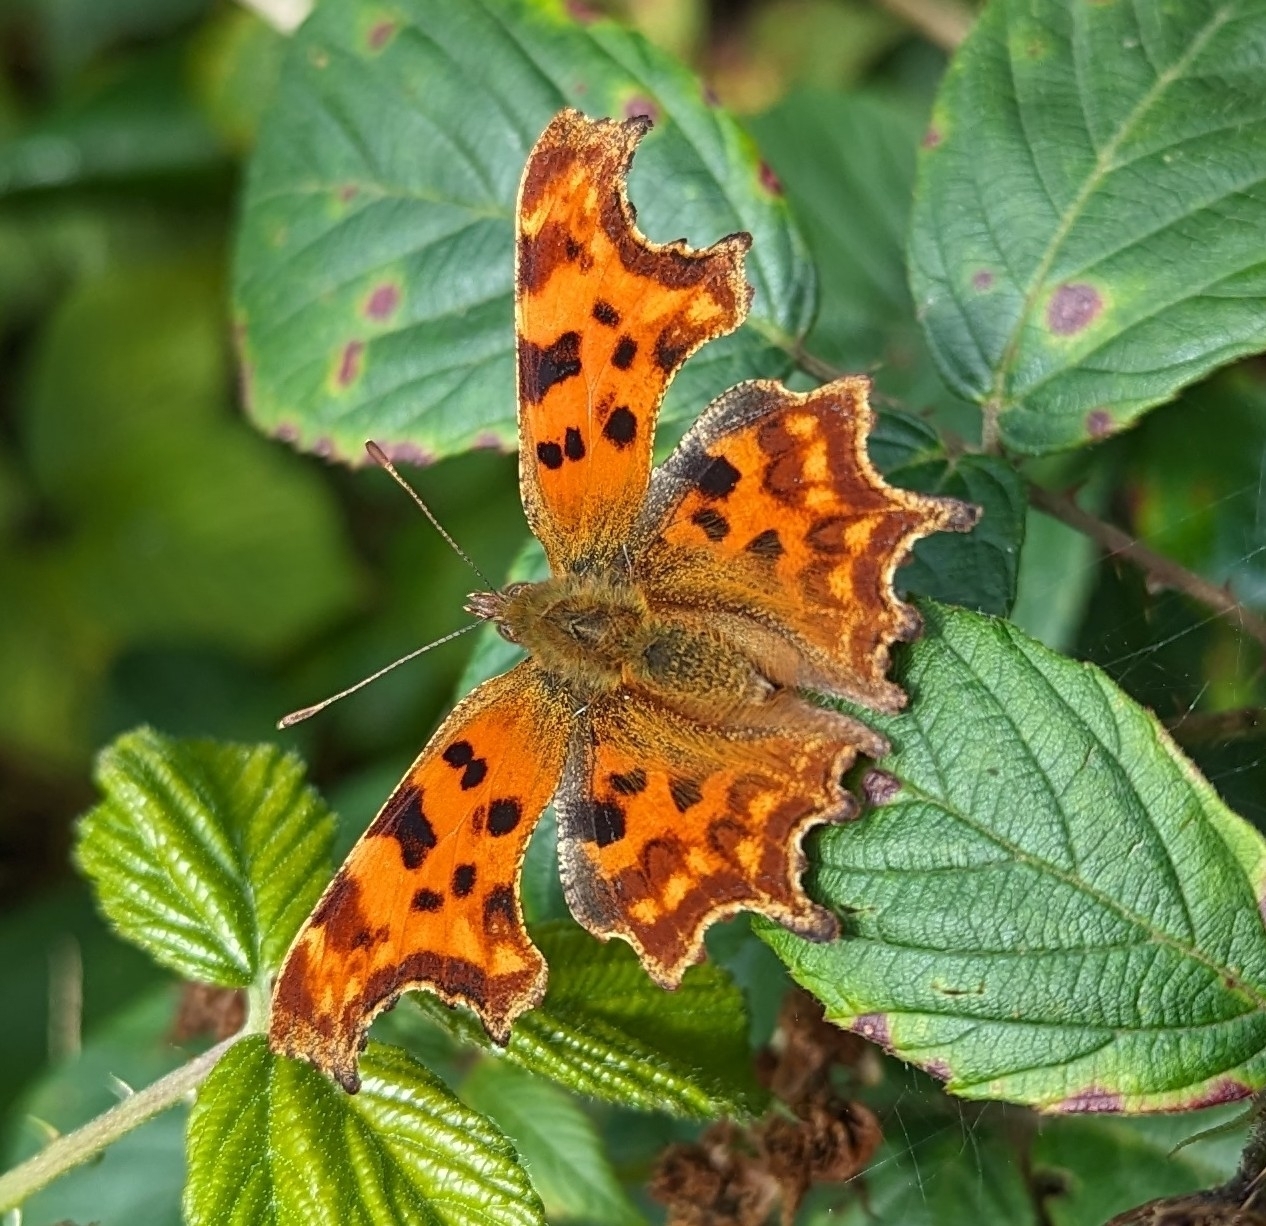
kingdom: Animalia
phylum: Arthropoda
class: Insecta
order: Lepidoptera
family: Nymphalidae
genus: Polygonia
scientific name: Polygonia c-album
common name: Comma
